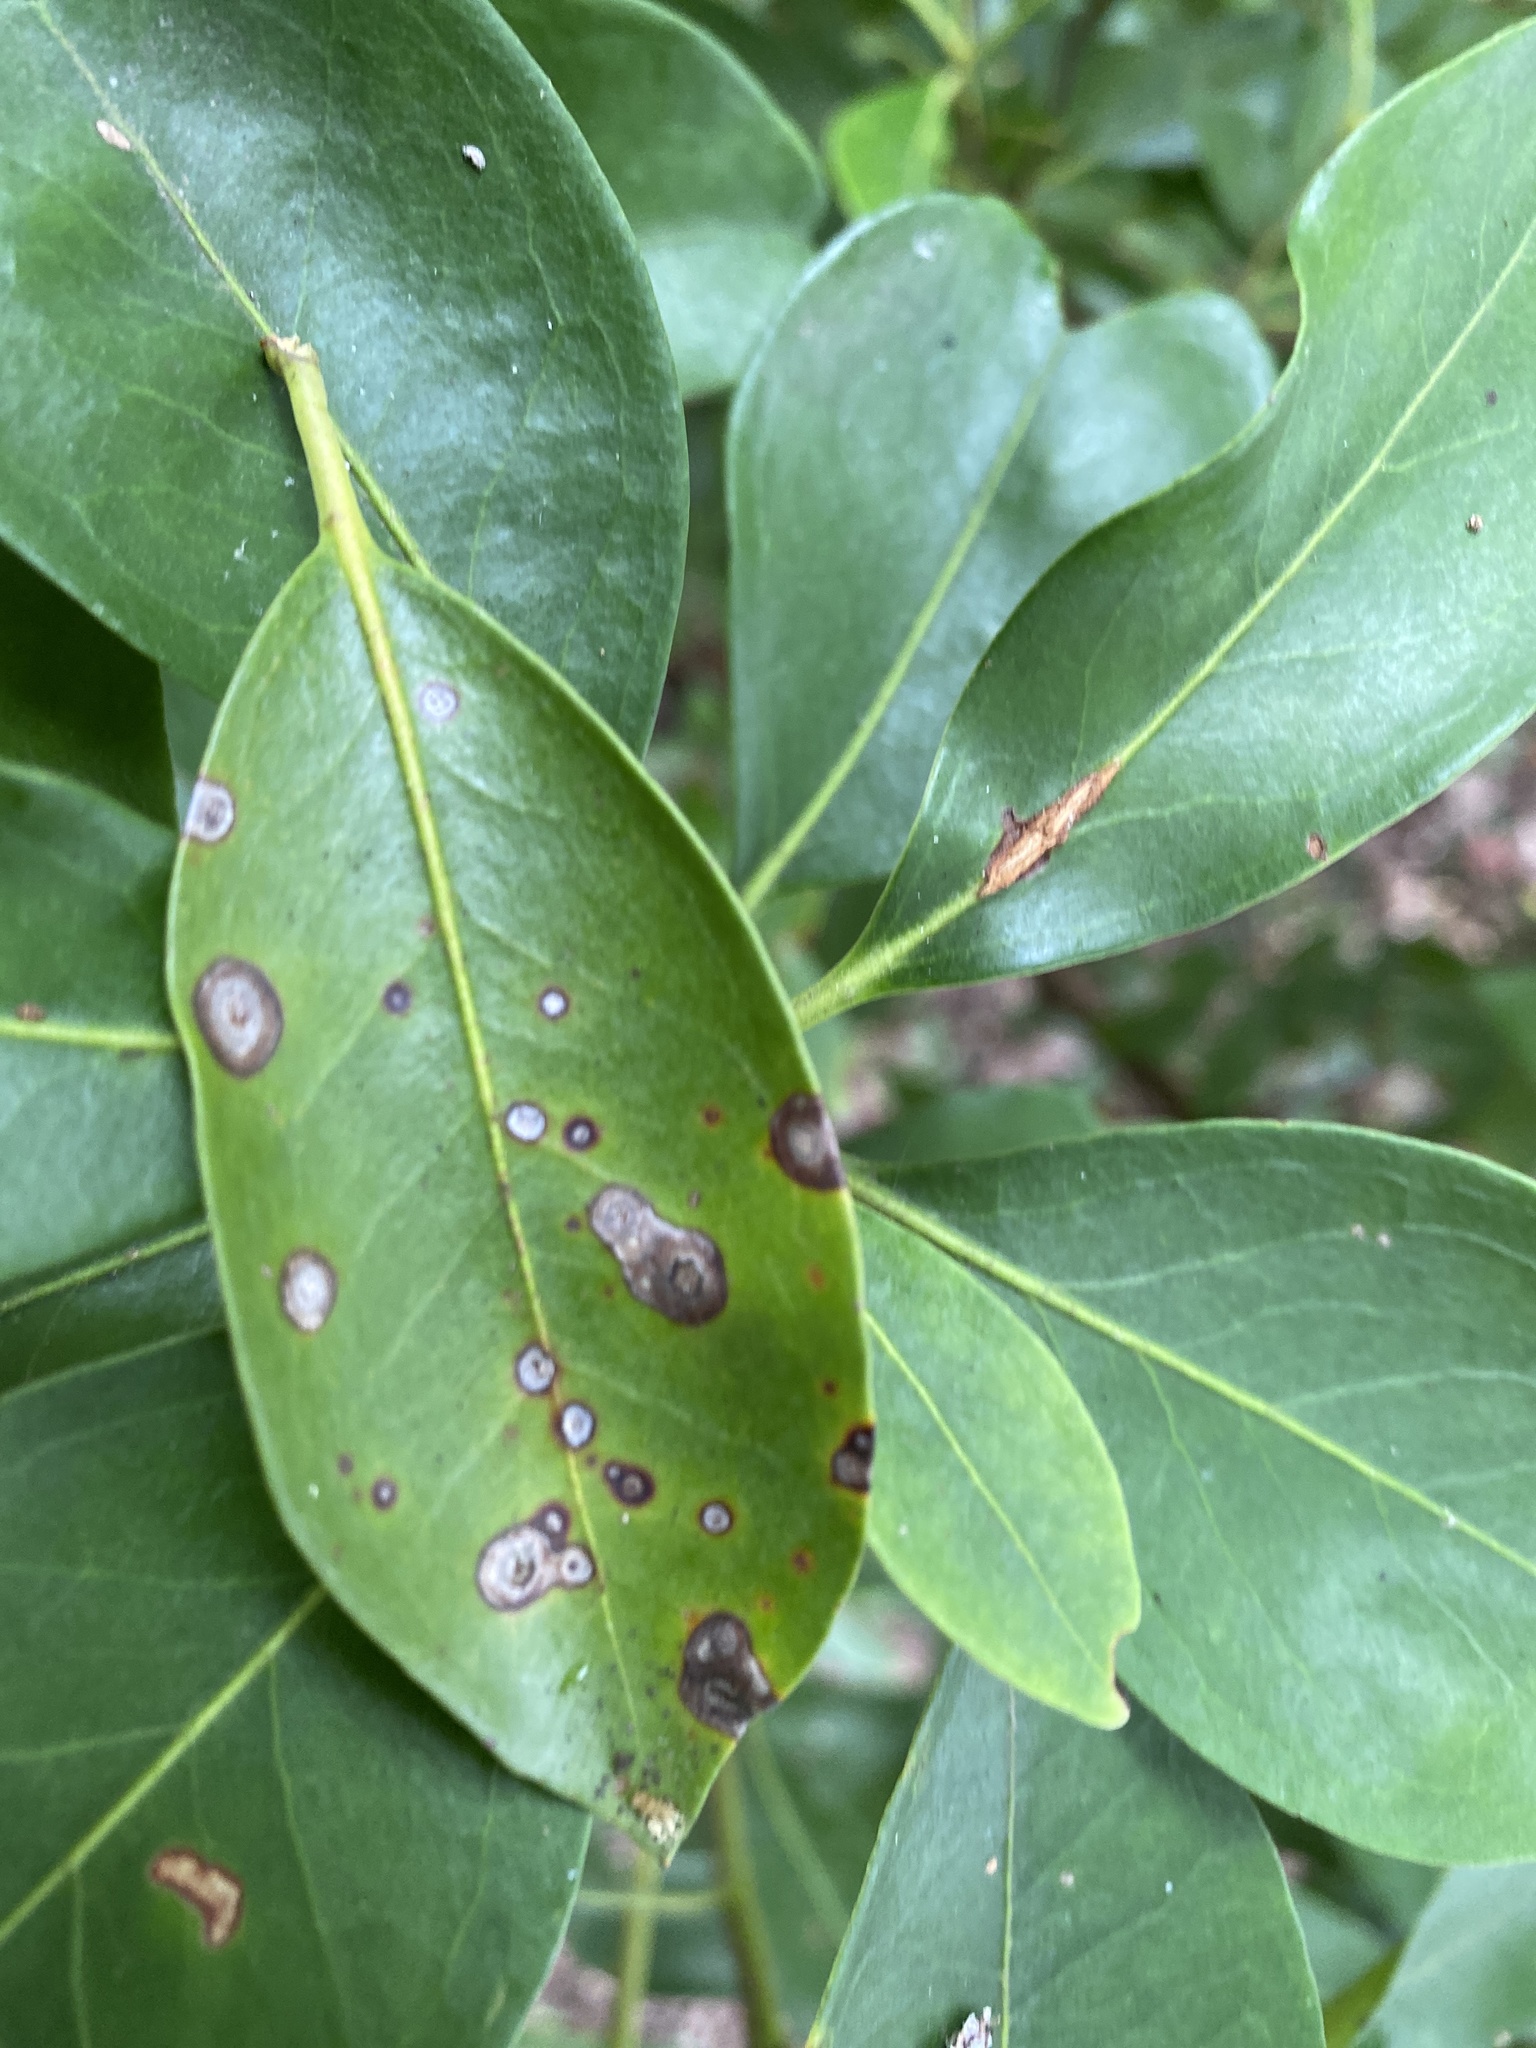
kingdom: Fungi
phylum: Ascomycota
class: Dothideomycetes
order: Mycosphaerellales
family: Mycosphaerellaceae
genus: Mycosphaerella
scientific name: Mycosphaerella colorata
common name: Mountain laurel leaf spot
